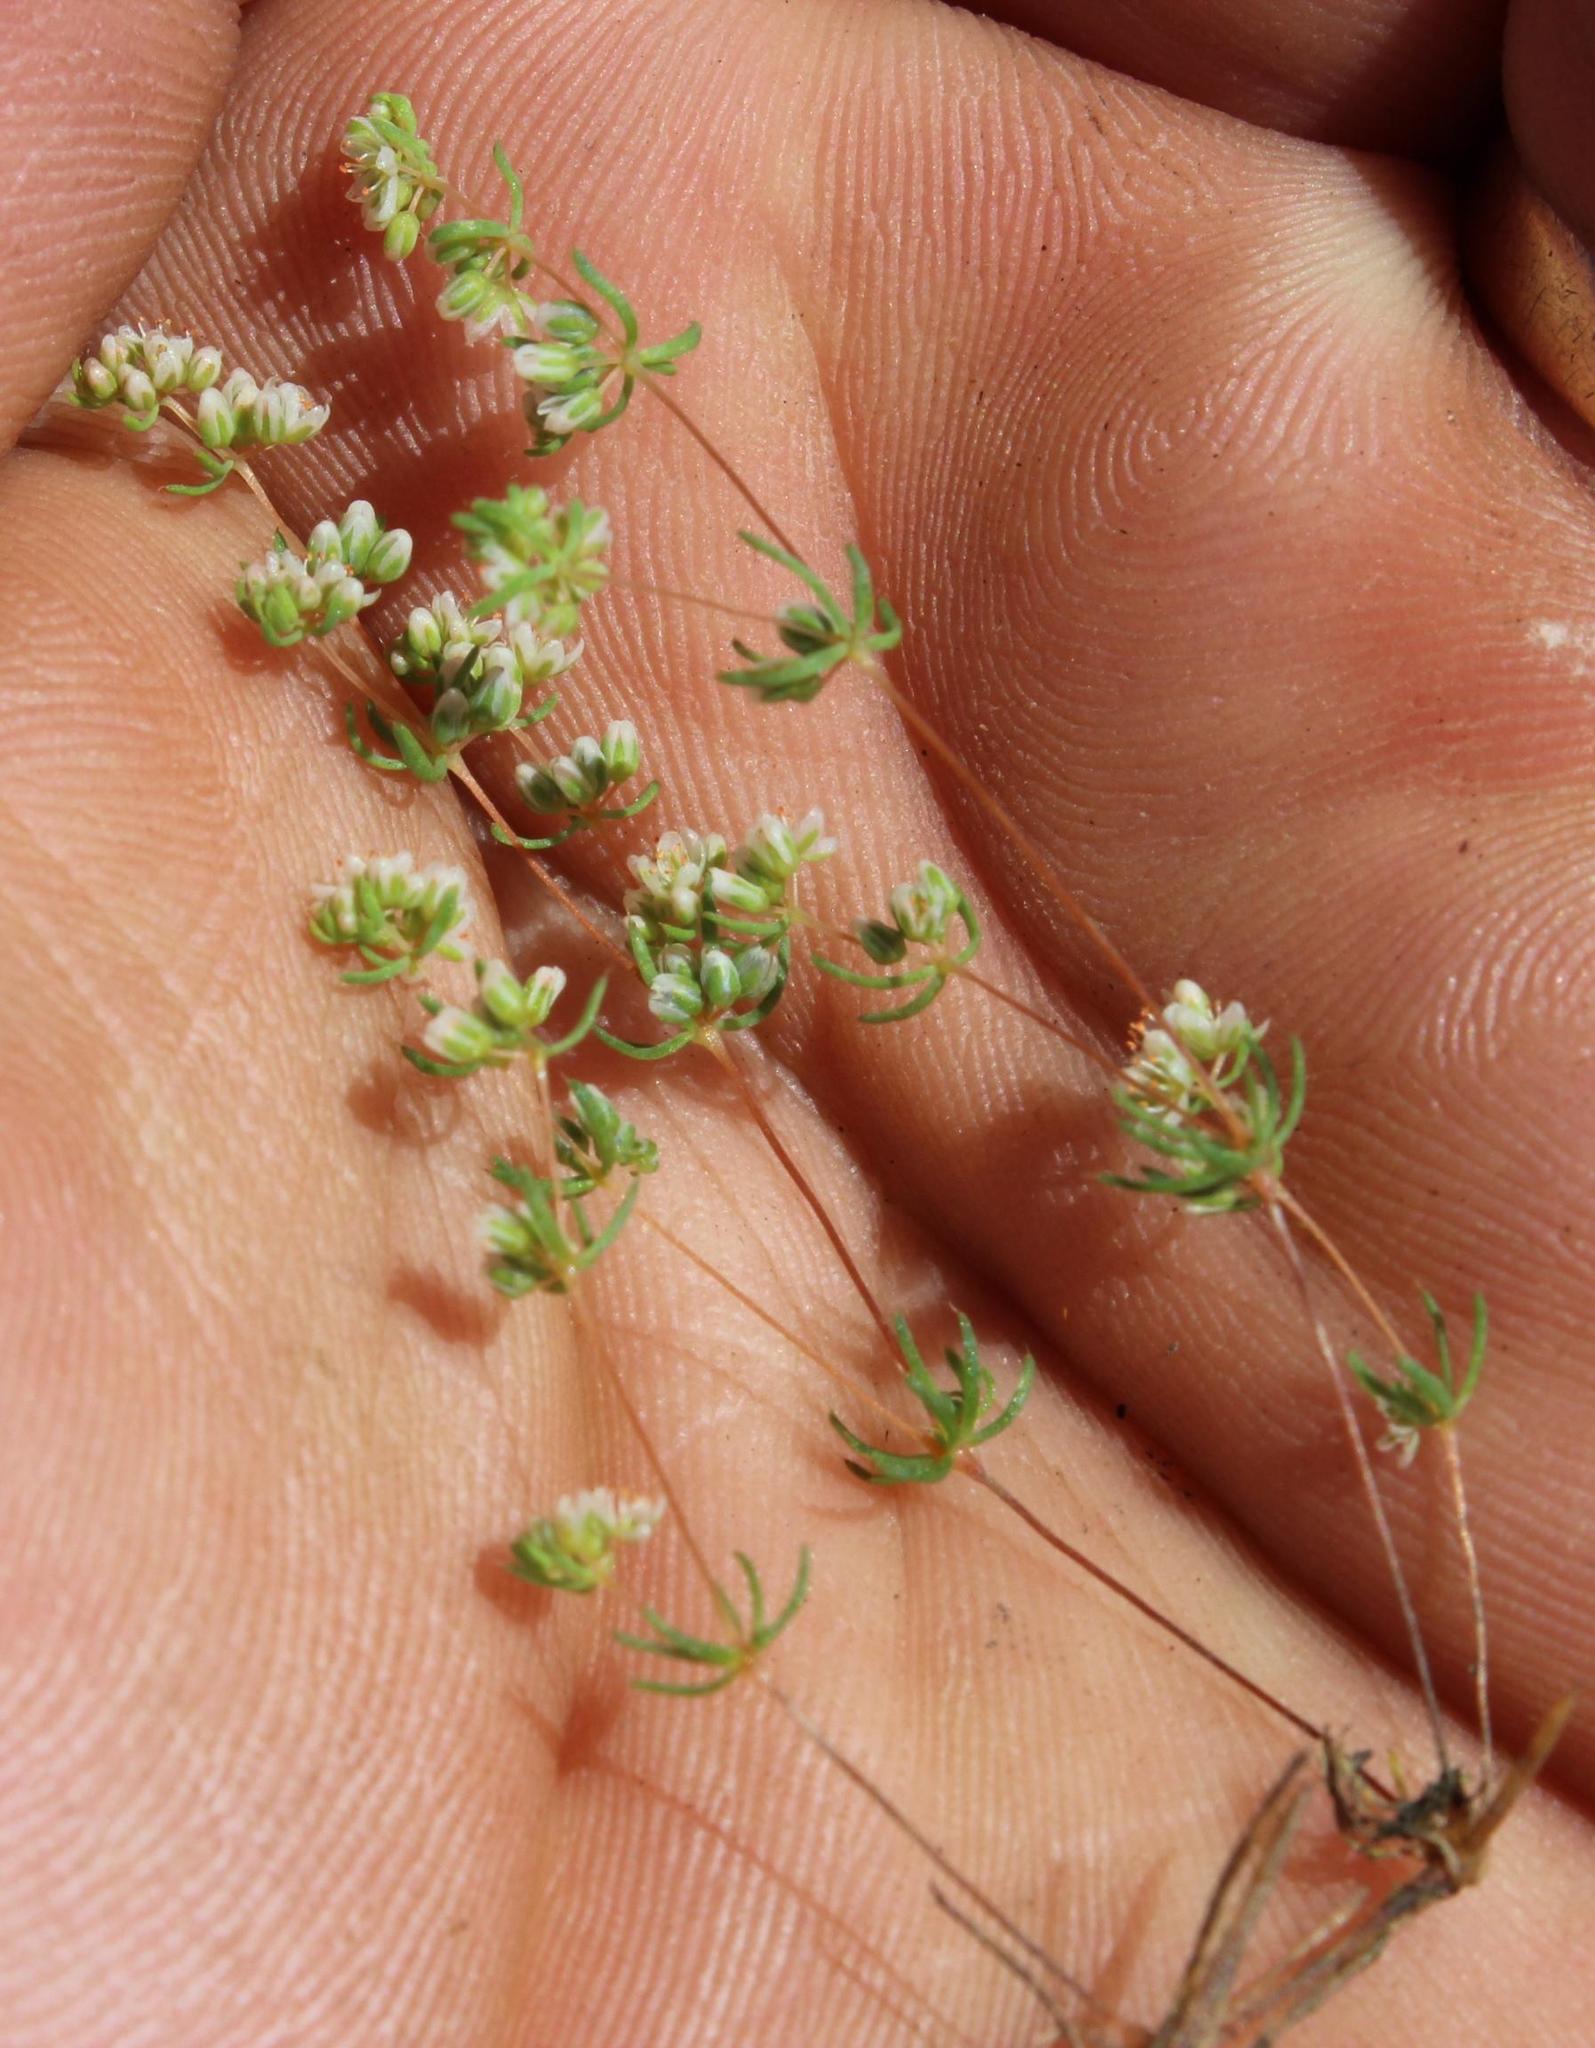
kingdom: Plantae
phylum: Tracheophyta
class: Magnoliopsida
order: Caryophyllales
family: Molluginaceae
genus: Adenogramma
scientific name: Adenogramma glomerata
